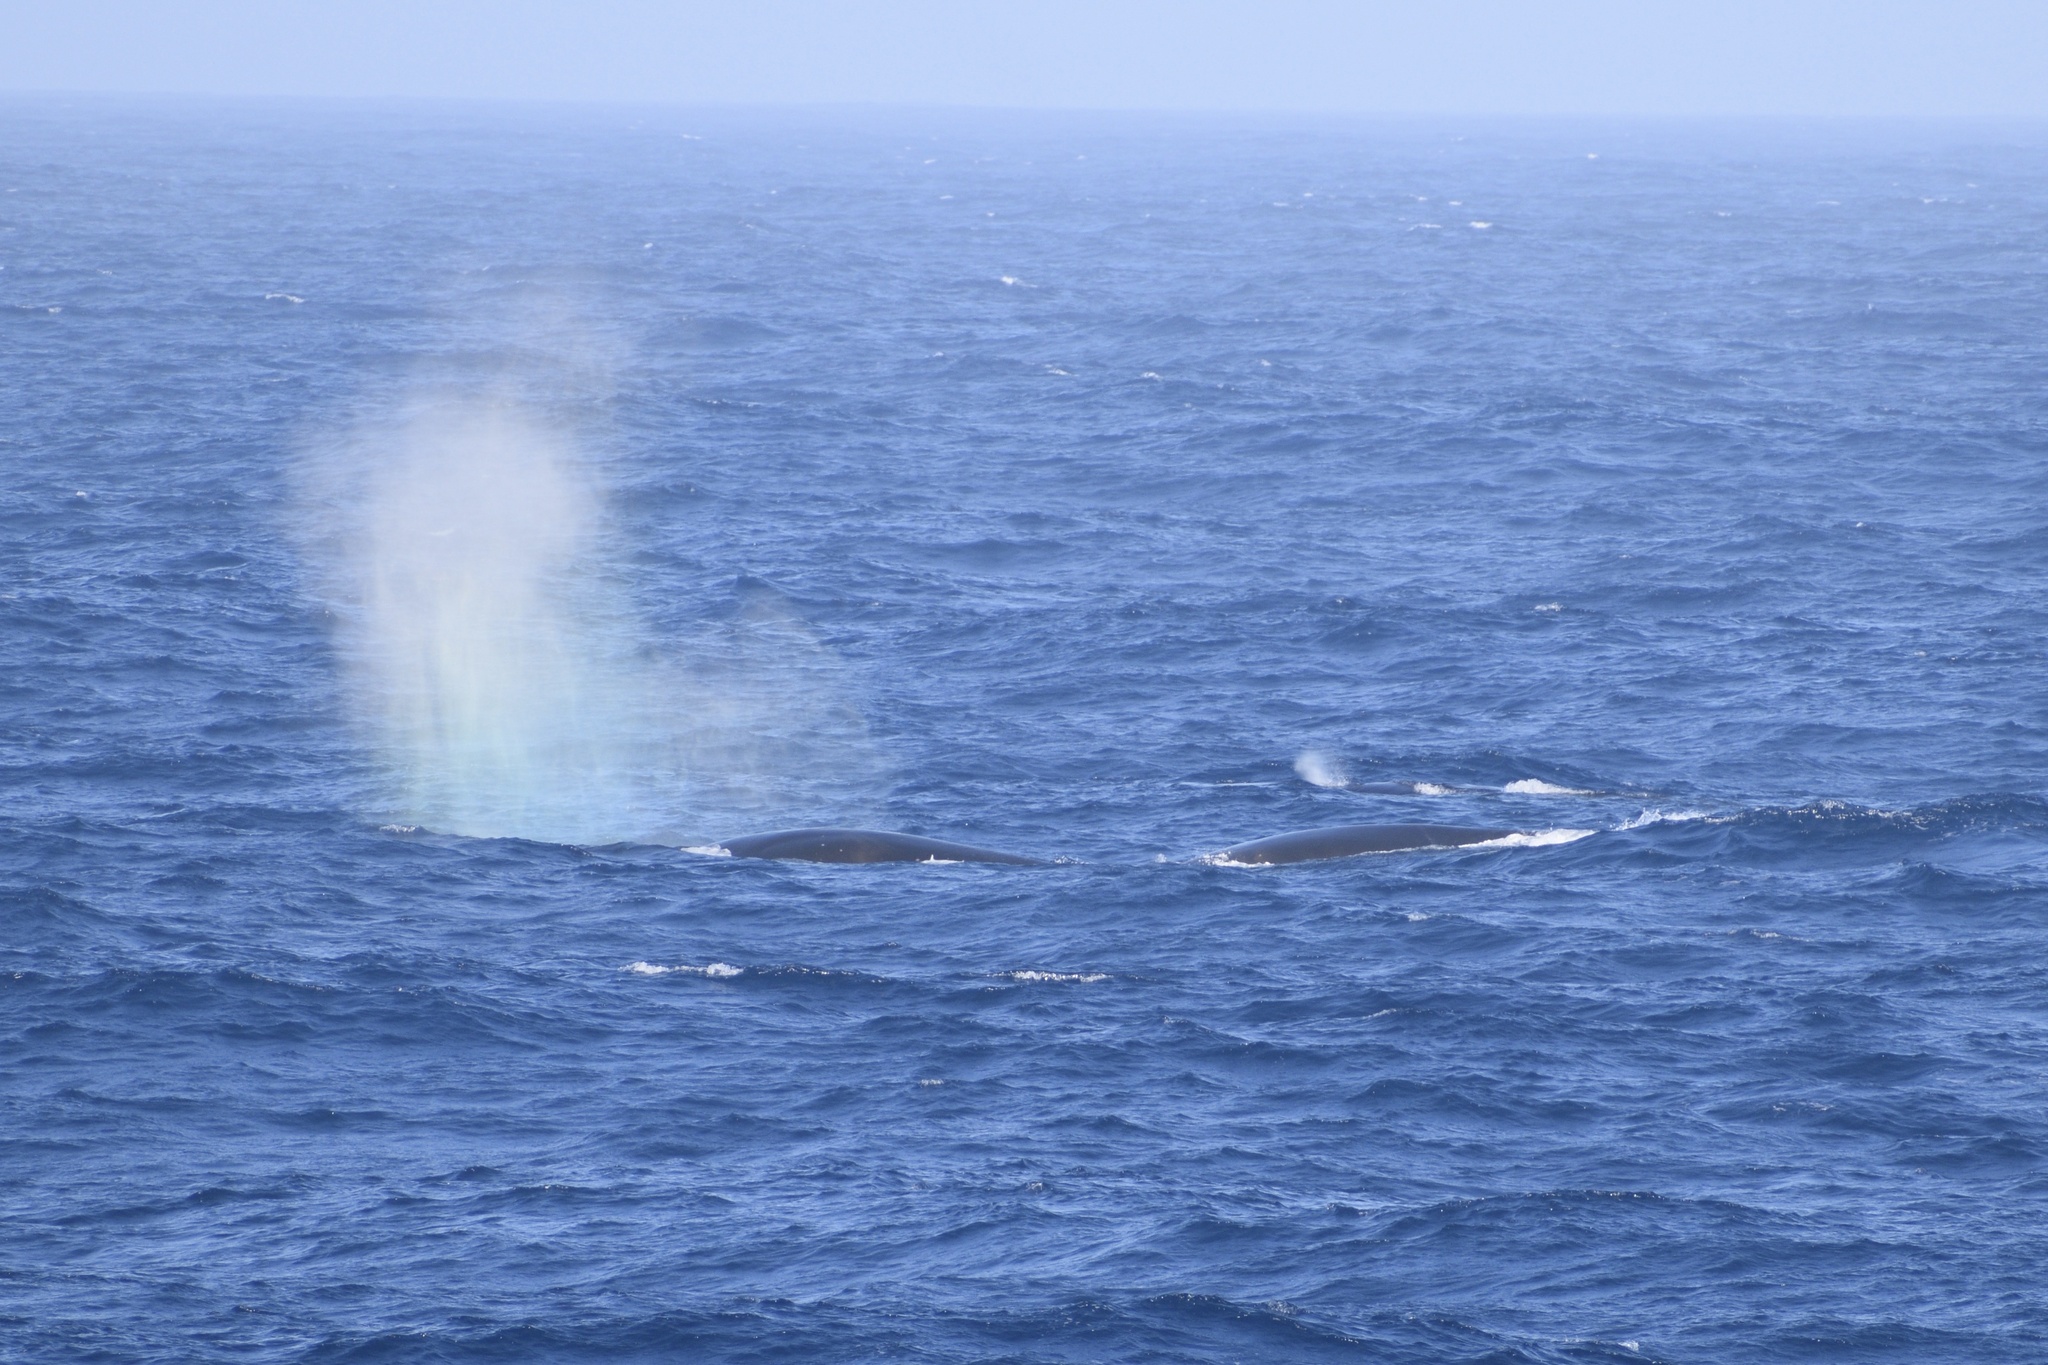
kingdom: Animalia
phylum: Chordata
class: Mammalia
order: Cetacea
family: Balaenopteridae
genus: Balaenoptera
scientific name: Balaenoptera physalus
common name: Fin whale
